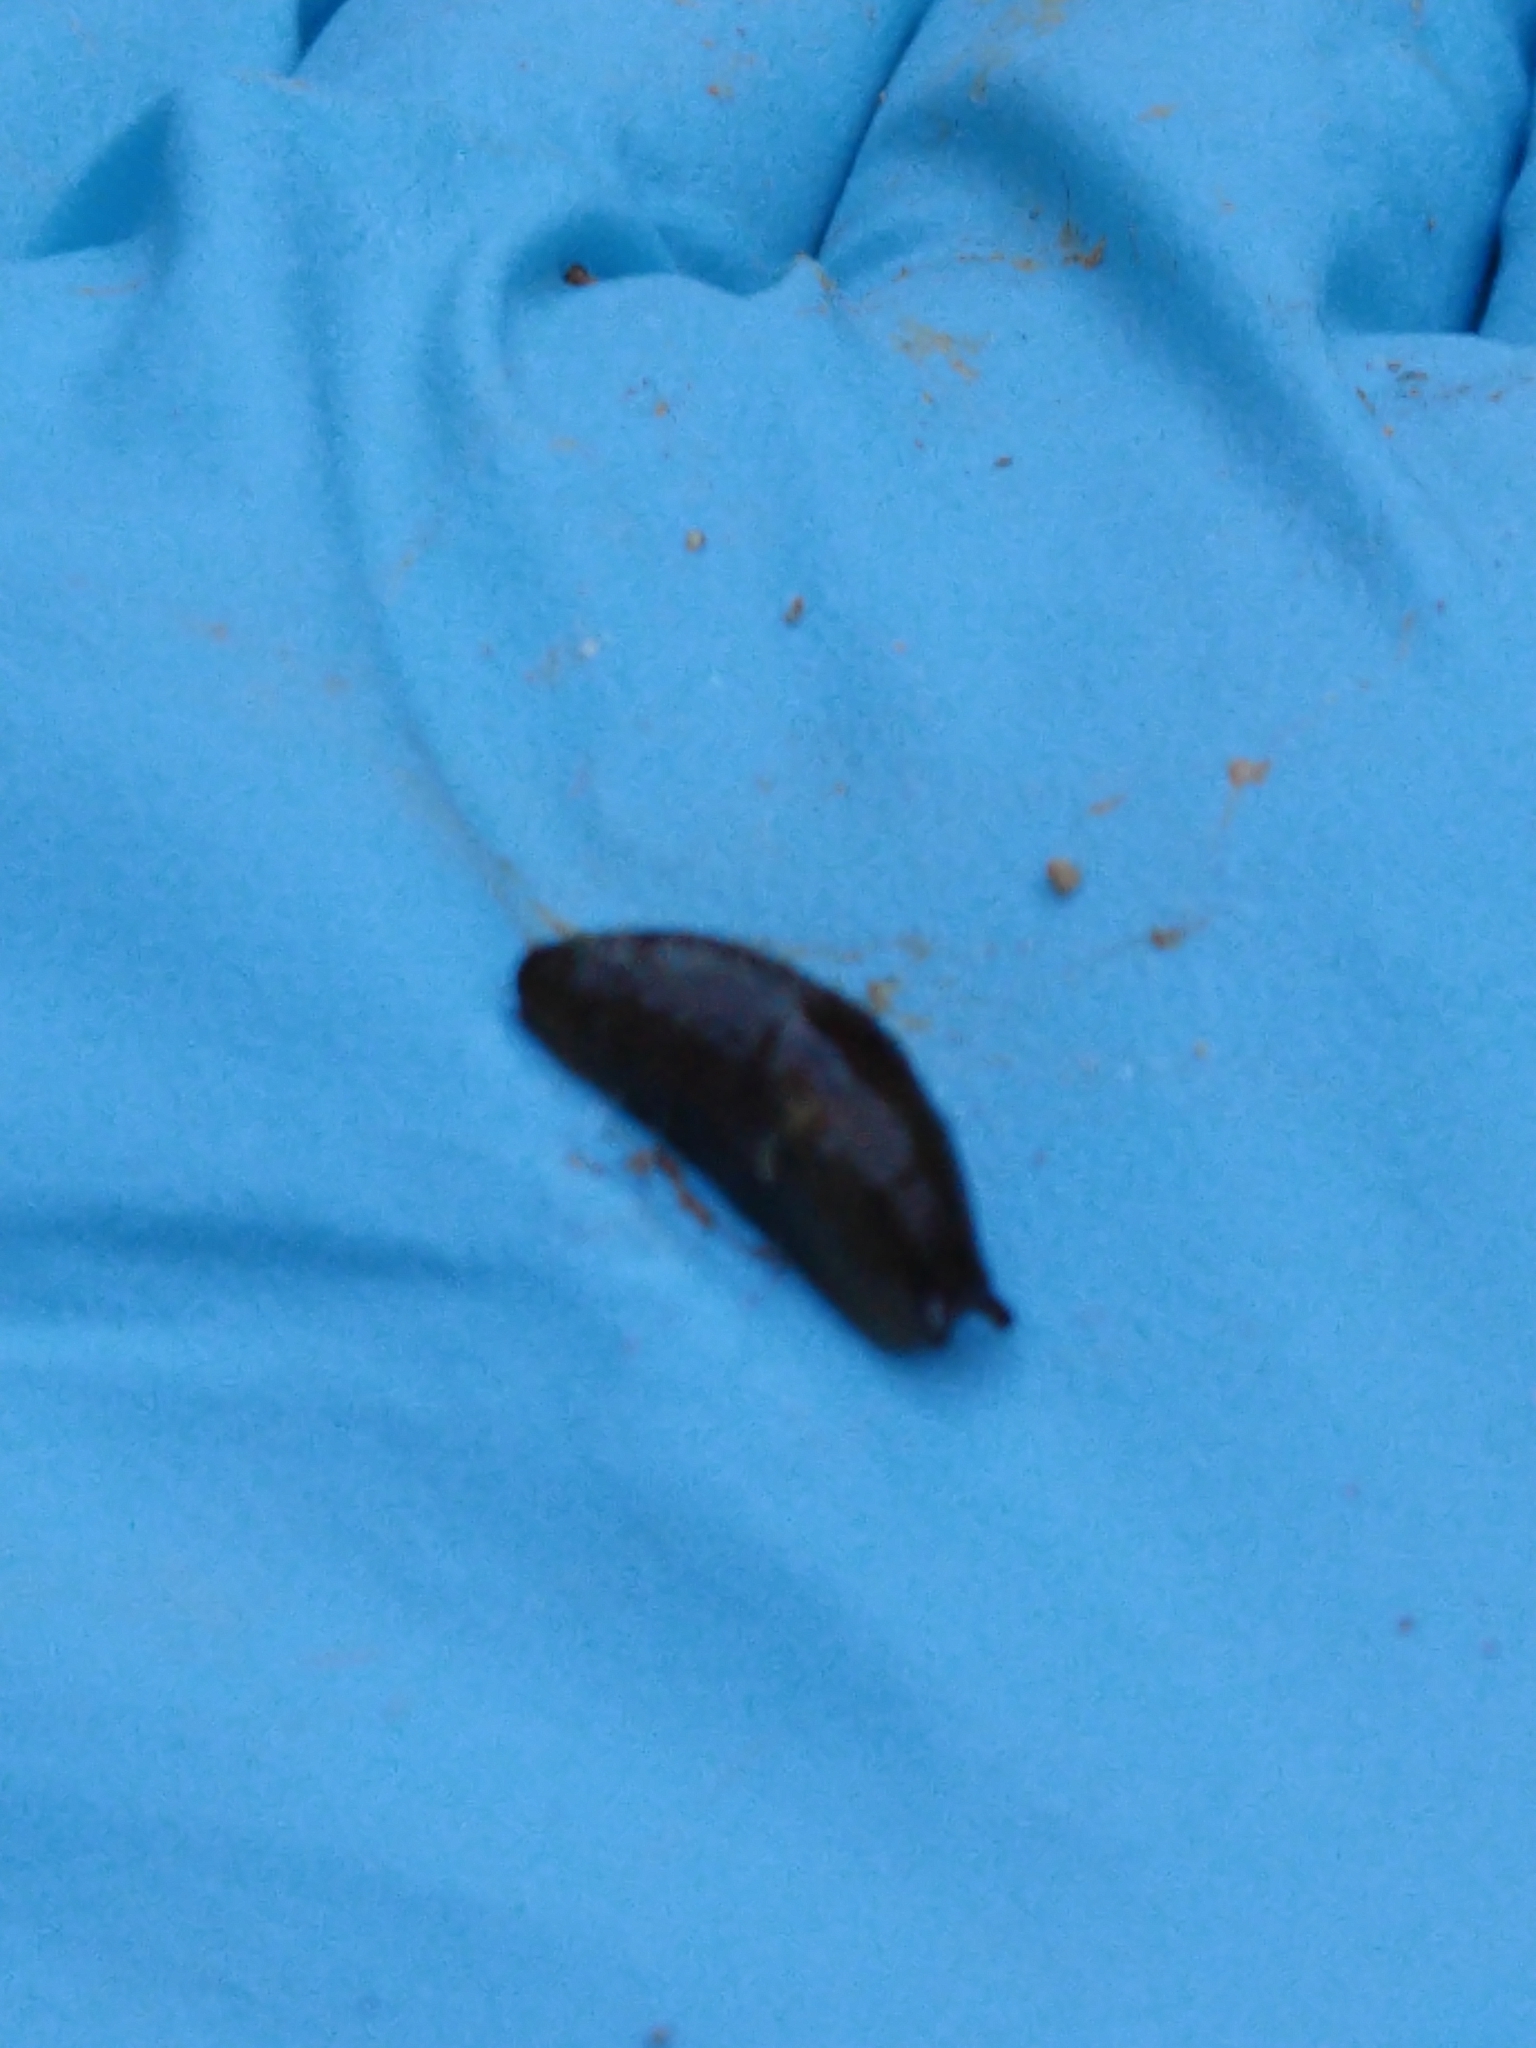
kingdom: Animalia
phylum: Mollusca
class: Gastropoda
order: Stylommatophora
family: Agriolimacidae
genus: Deroceras
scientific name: Deroceras laeve
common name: Marsh slug
